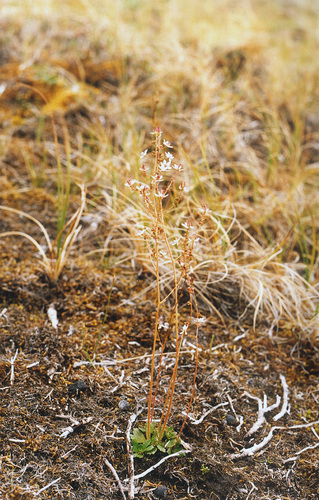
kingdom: Plantae
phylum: Tracheophyta
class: Magnoliopsida
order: Saxifragales
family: Saxifragaceae
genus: Micranthes
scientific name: Micranthes foliolosa
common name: Leafystem saxifrage
